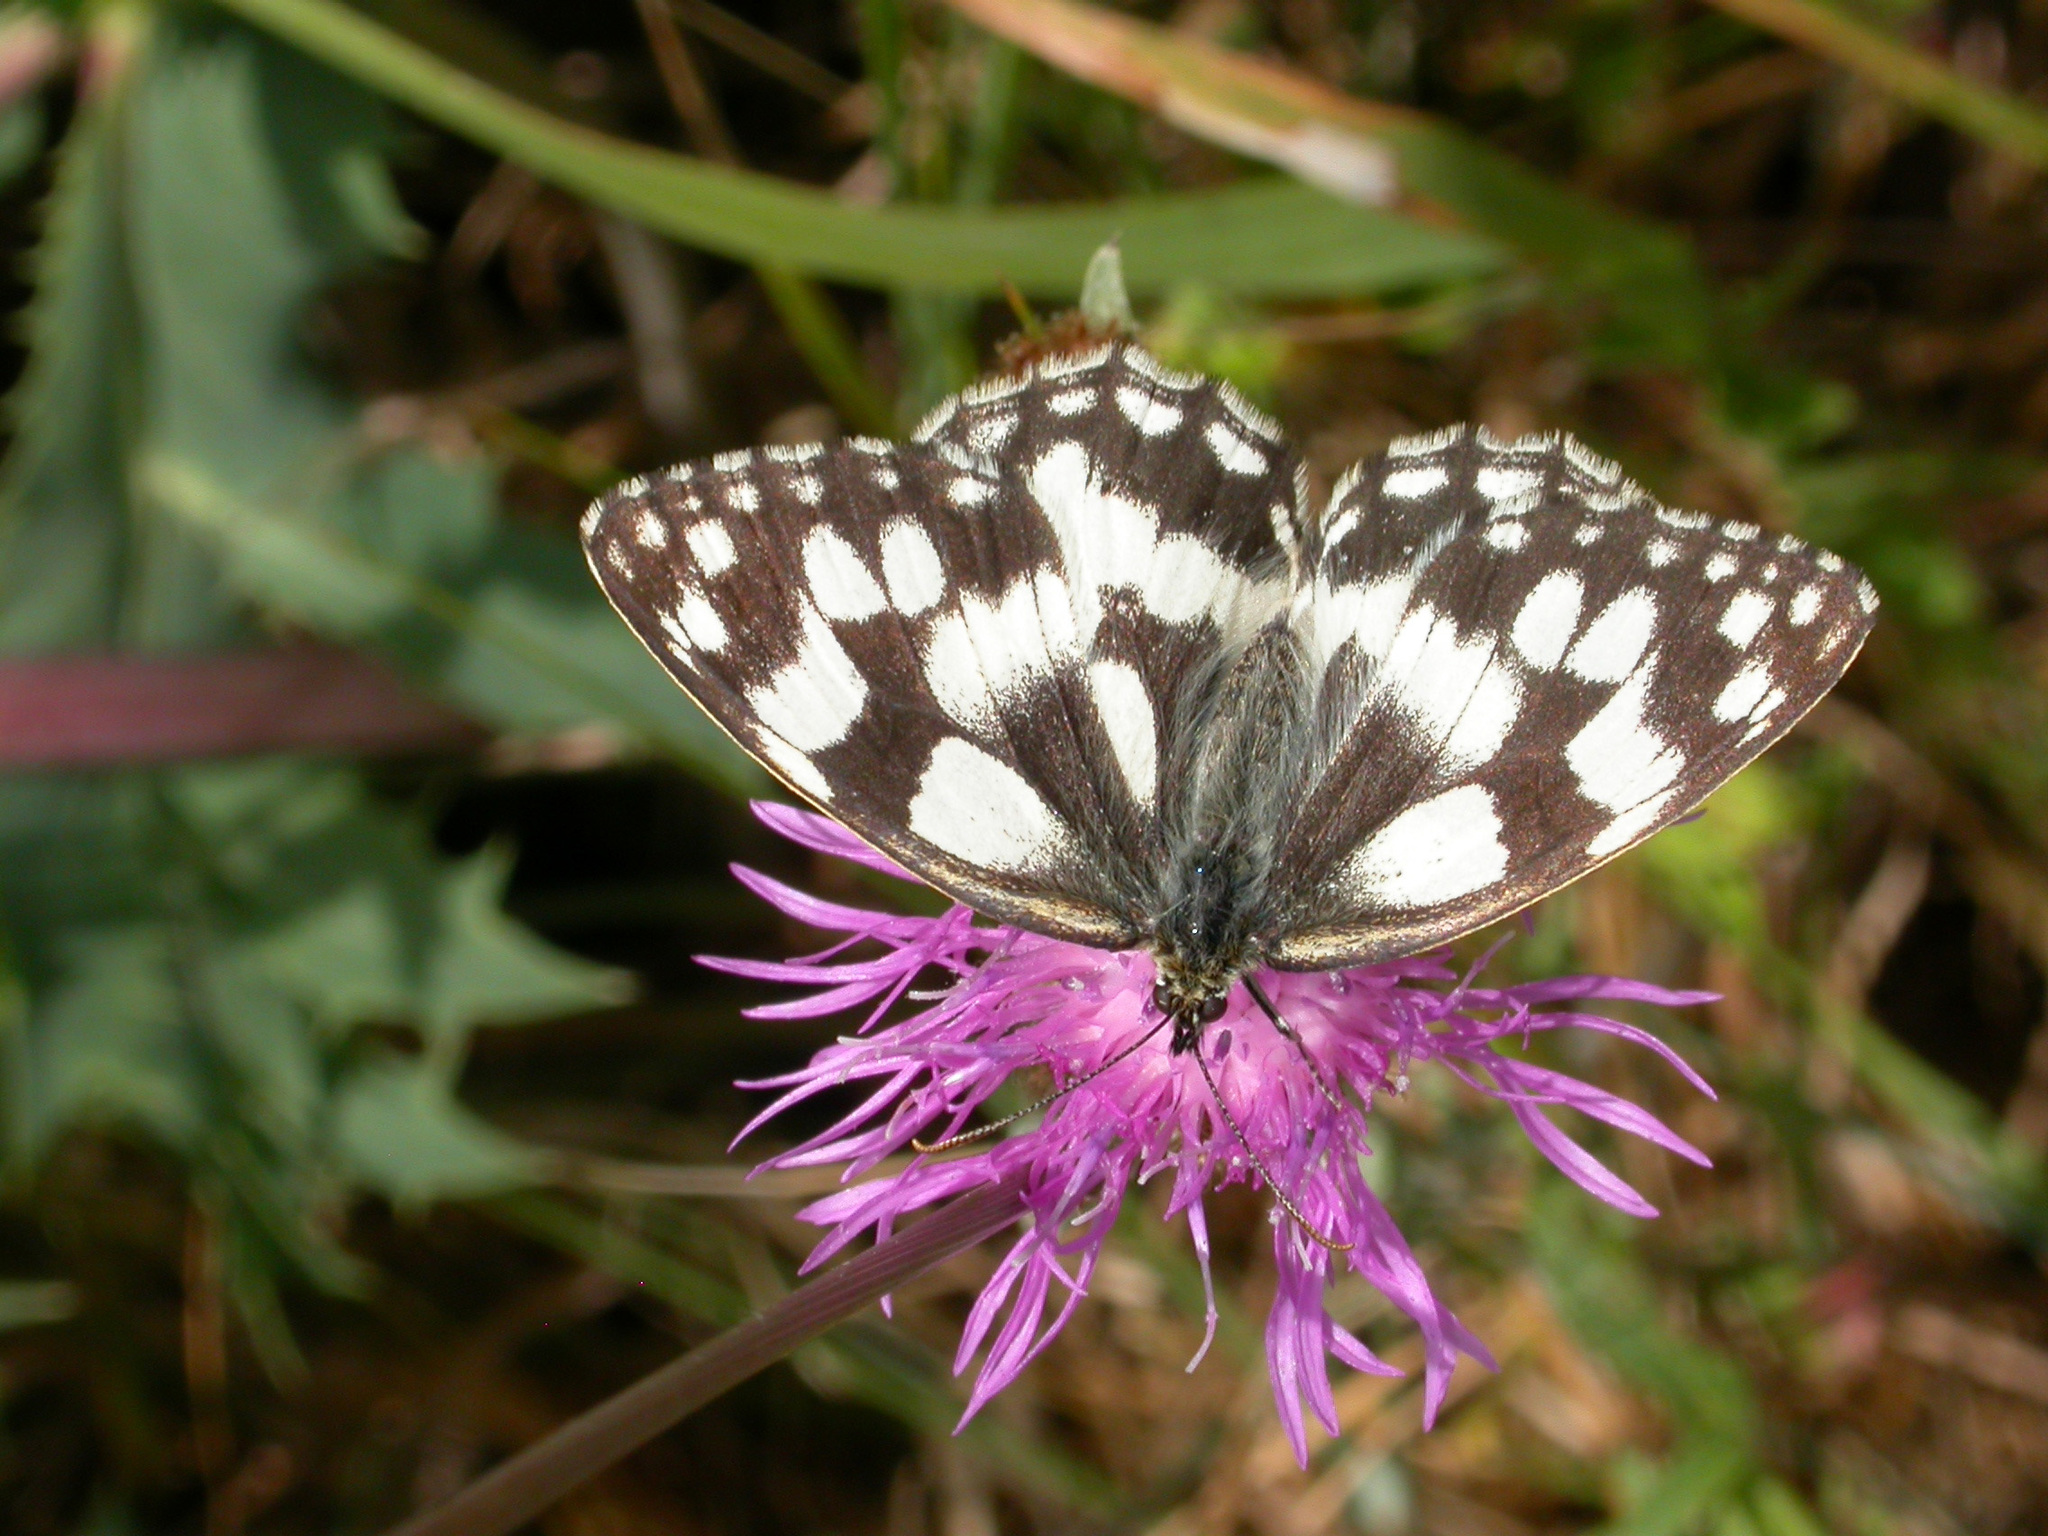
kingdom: Animalia
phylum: Arthropoda
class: Insecta
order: Lepidoptera
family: Nymphalidae
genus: Melanargia
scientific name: Melanargia galathea
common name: Marbled white
